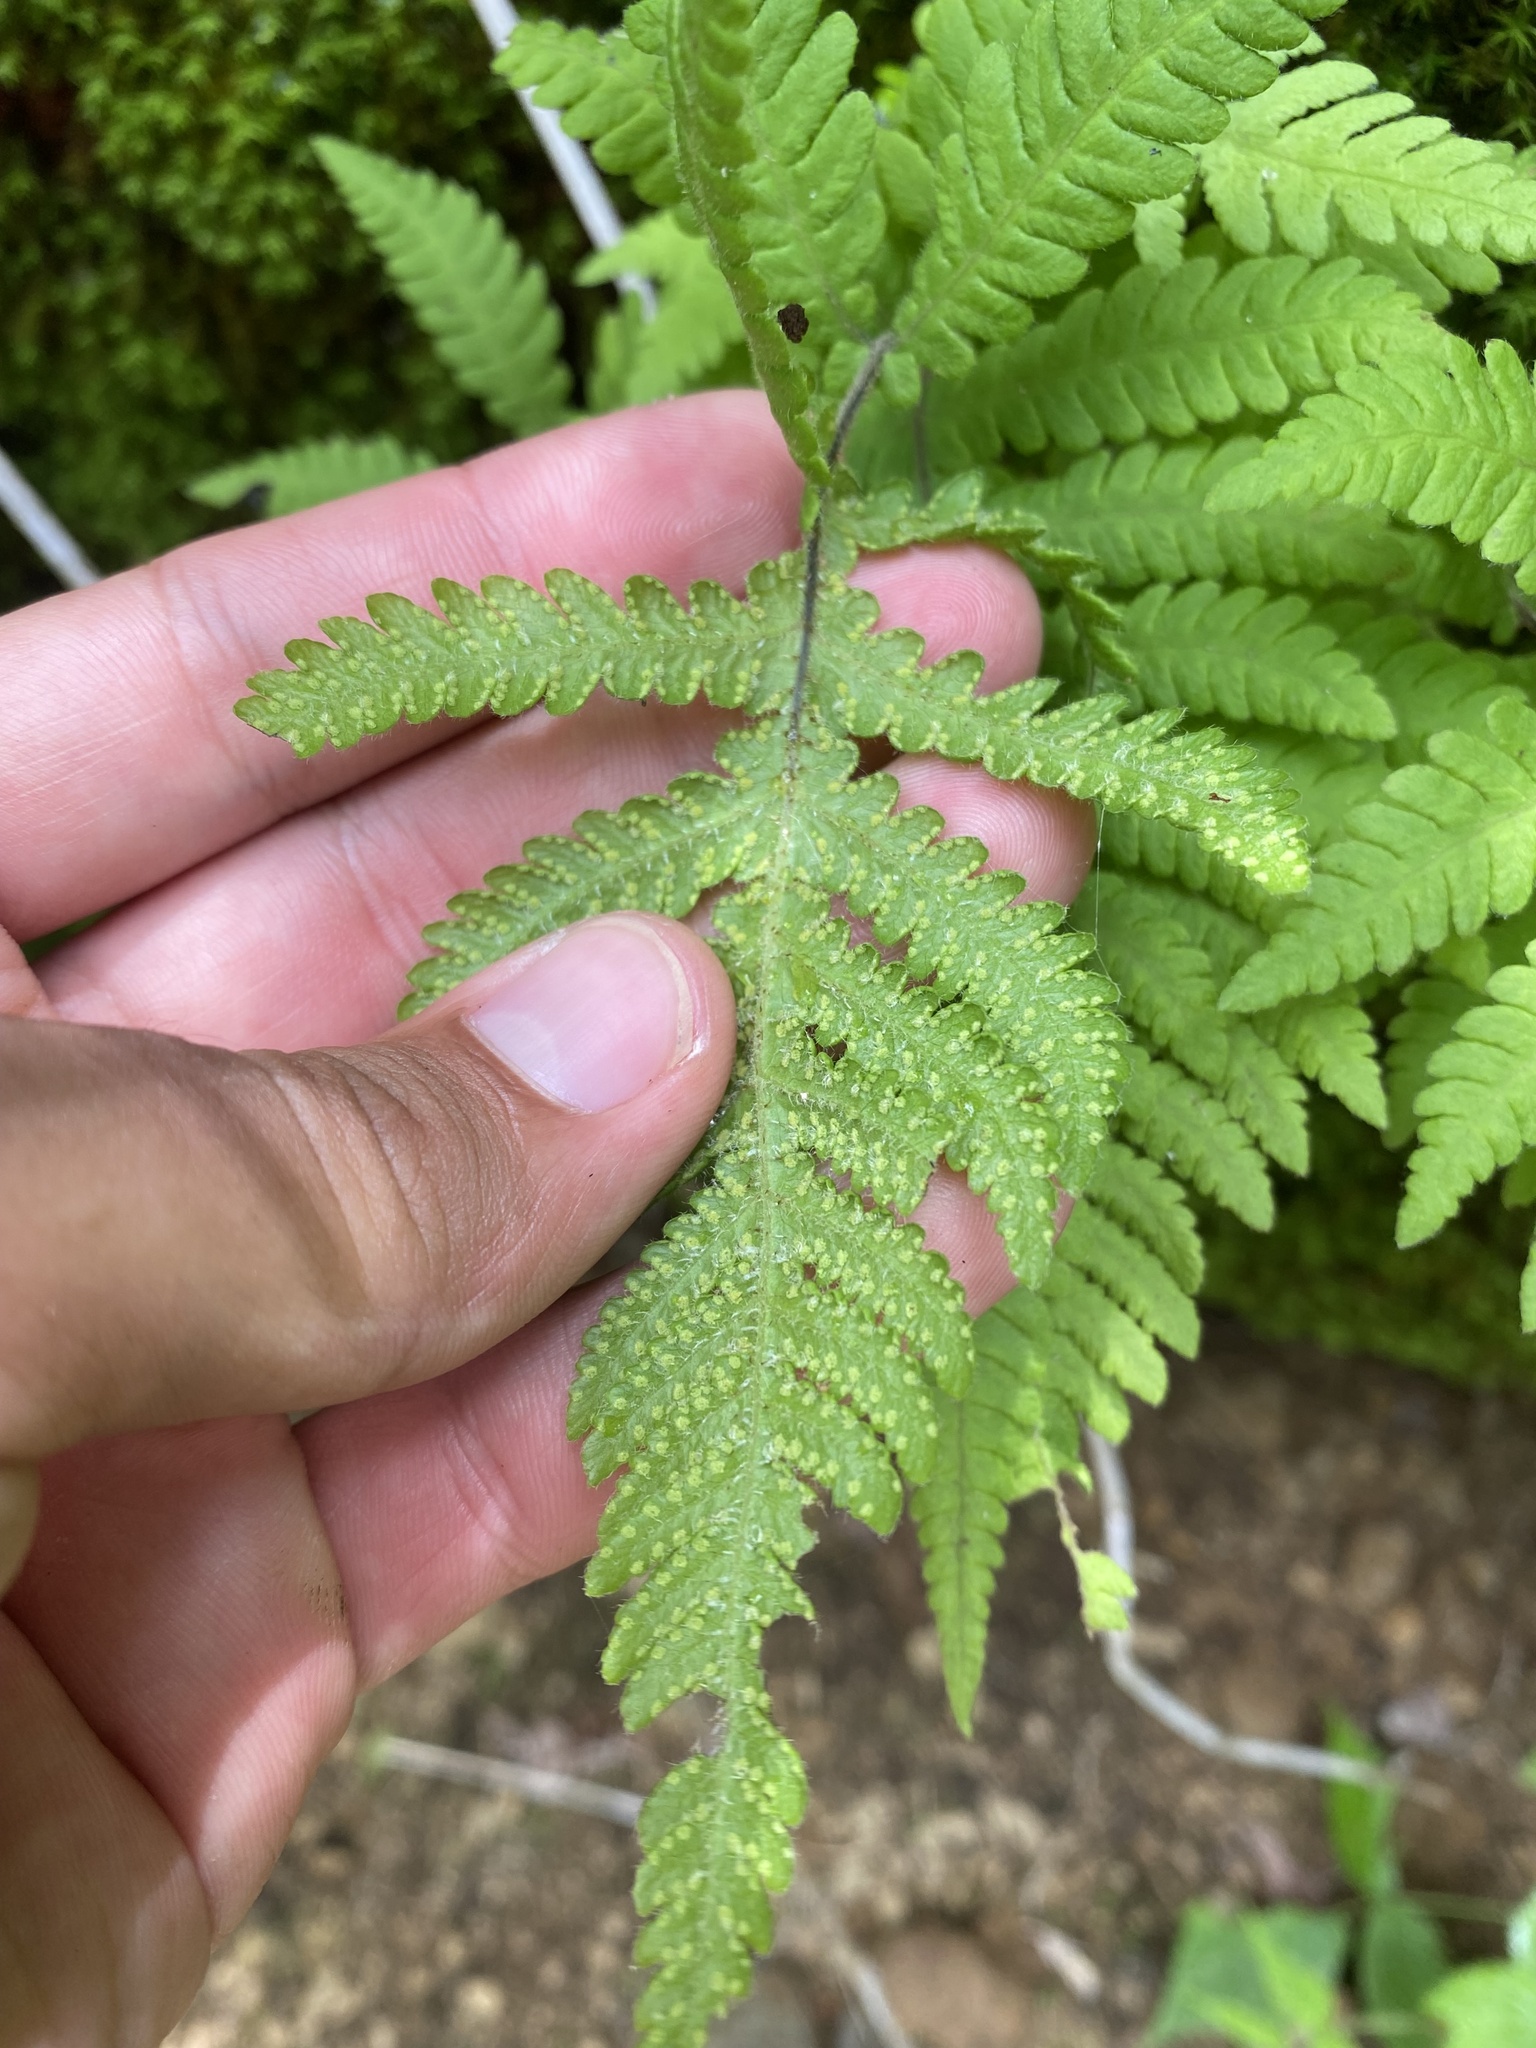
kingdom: Plantae
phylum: Tracheophyta
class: Polypodiopsida
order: Polypodiales
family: Thelypteridaceae
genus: Phegopteris
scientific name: Phegopteris connectilis
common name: Beech fern
